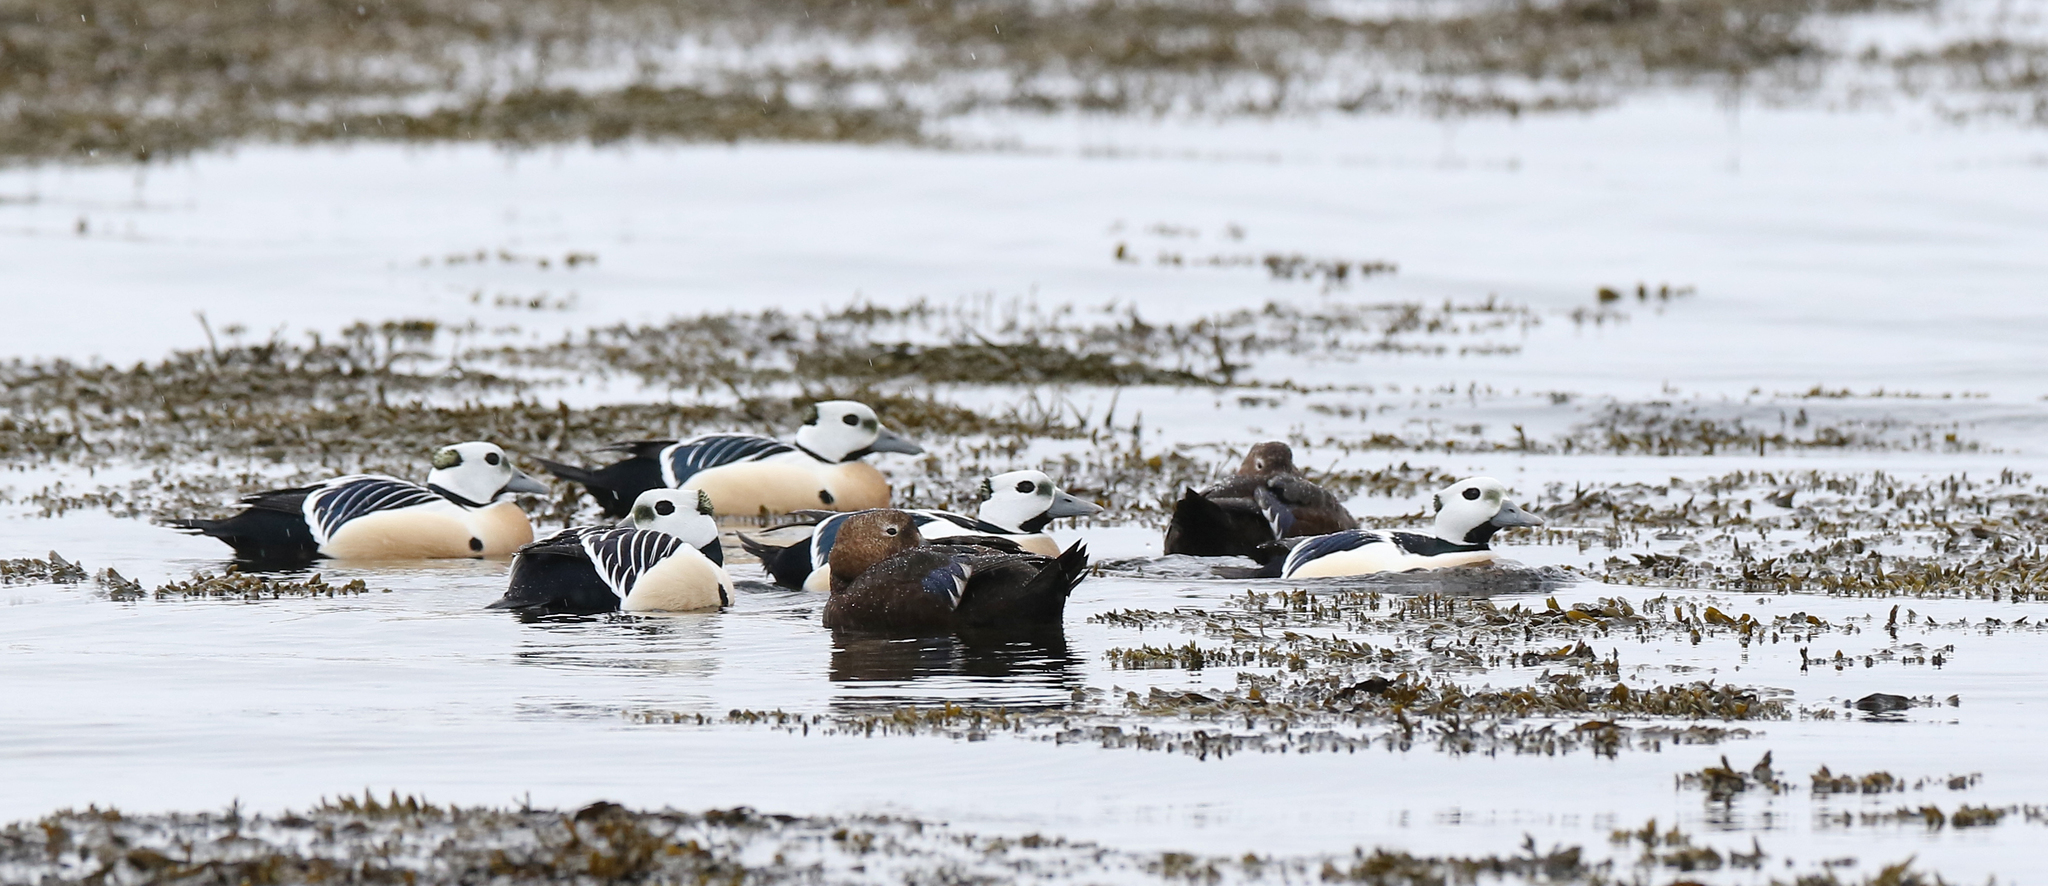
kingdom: Animalia
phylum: Chordata
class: Aves
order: Anseriformes
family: Anatidae
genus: Polysticta
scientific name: Polysticta stelleri
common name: Steller's eider
